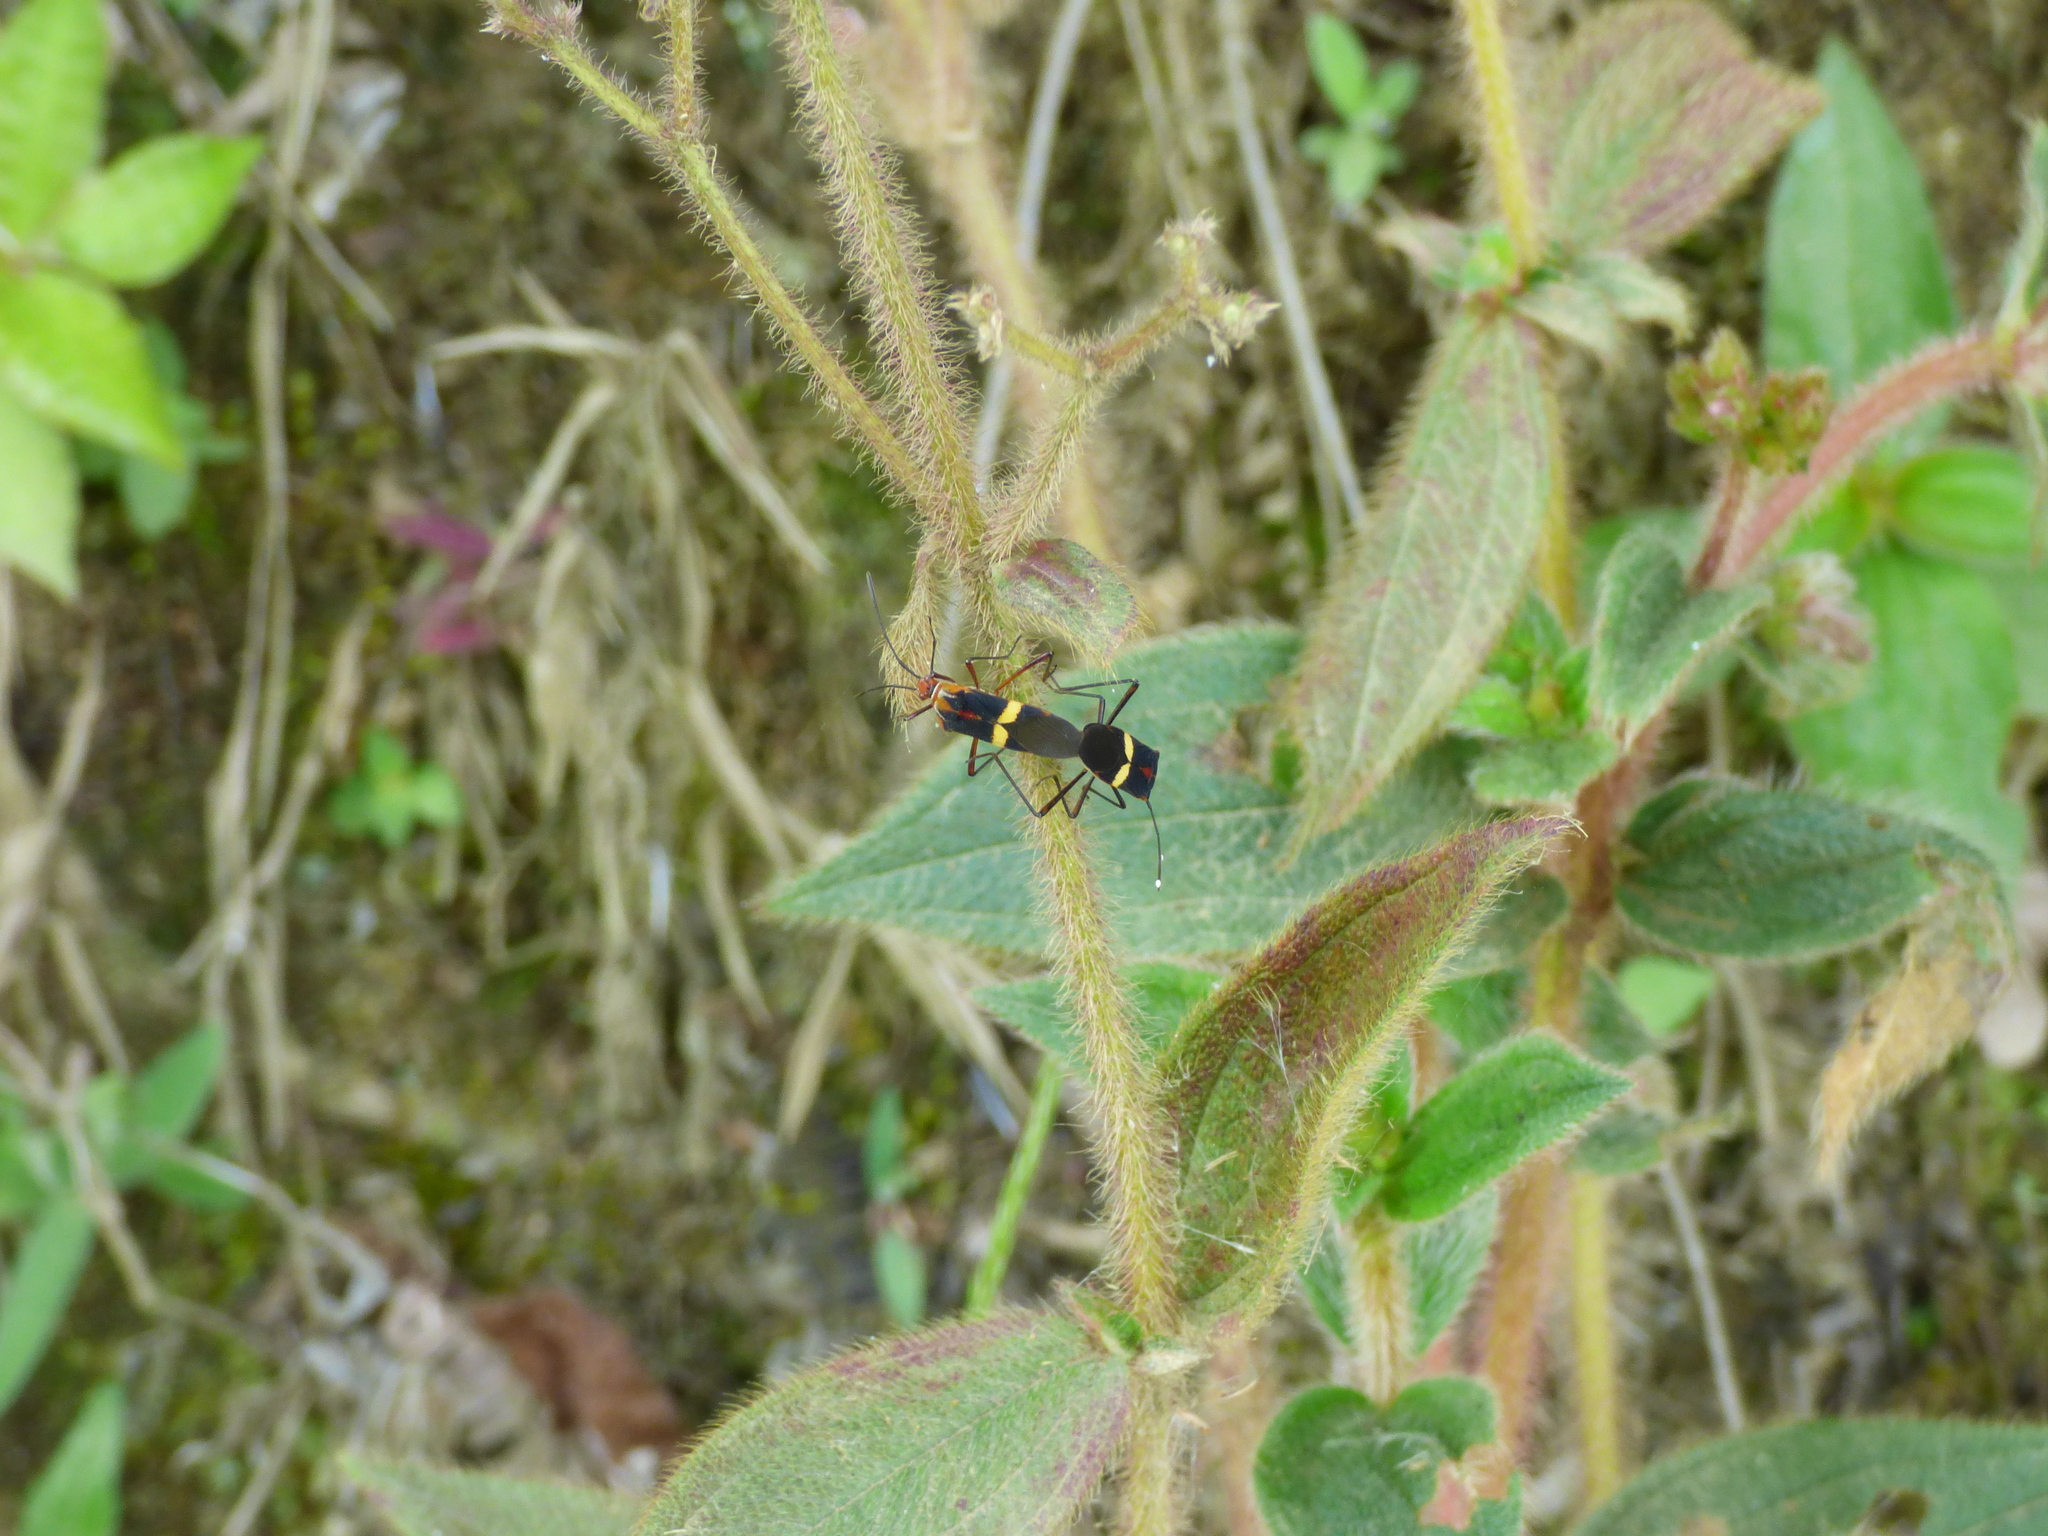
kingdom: Animalia
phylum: Arthropoda
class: Insecta
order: Hemiptera
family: Coreidae
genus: Hypselonotus
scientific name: Hypselonotus interruptus
